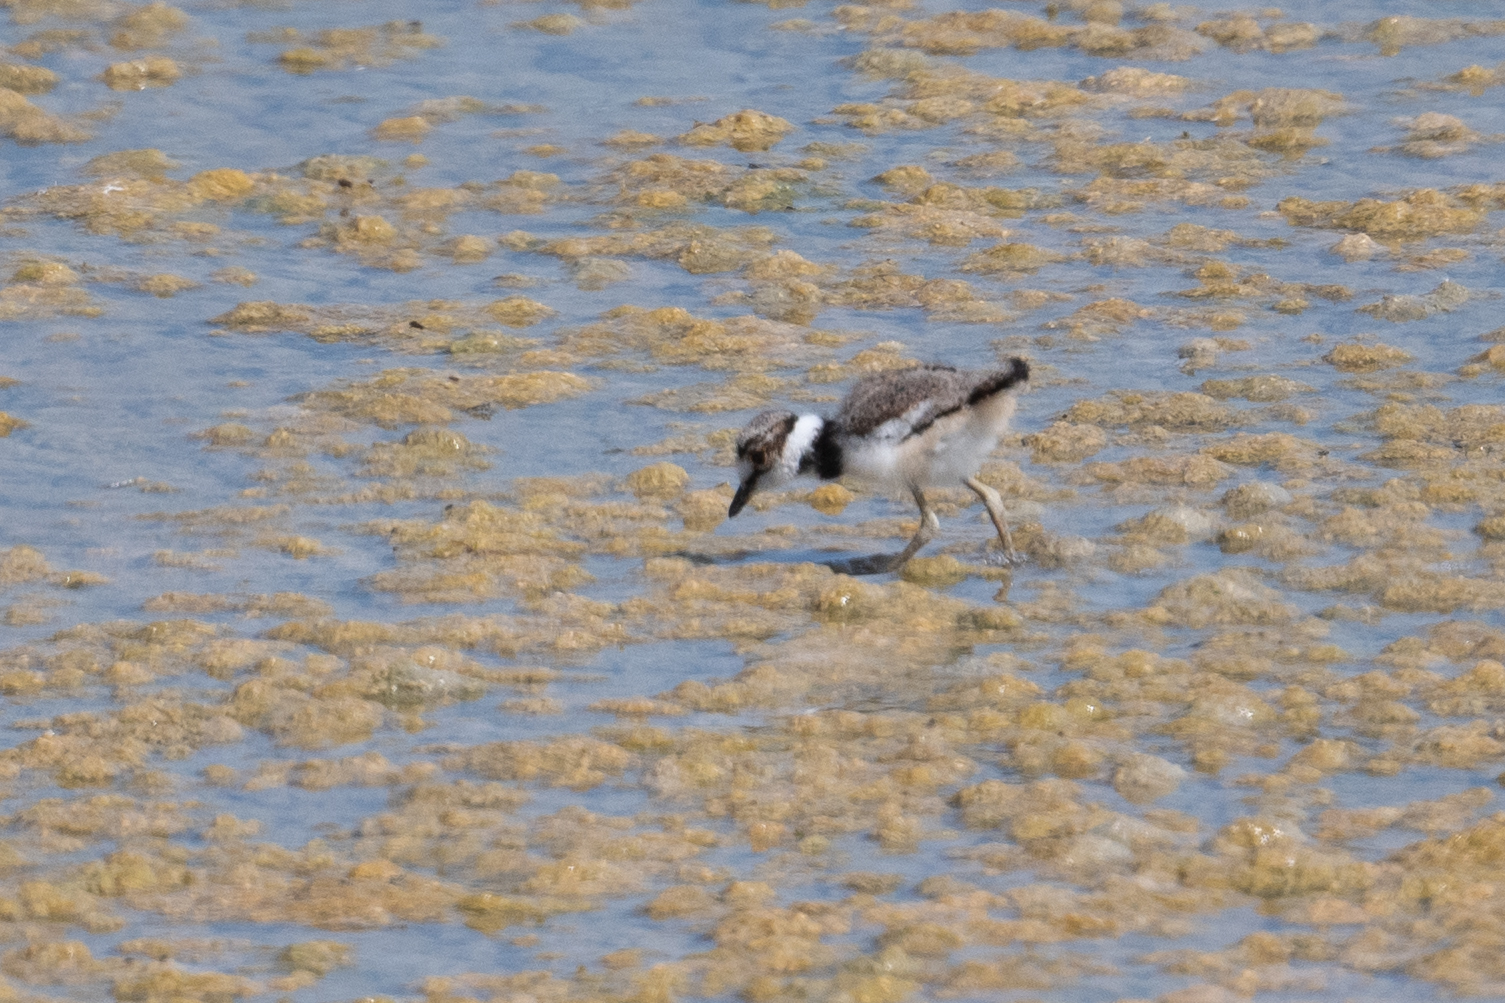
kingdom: Animalia
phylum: Chordata
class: Aves
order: Charadriiformes
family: Charadriidae
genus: Charadrius
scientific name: Charadrius vociferus
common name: Killdeer
